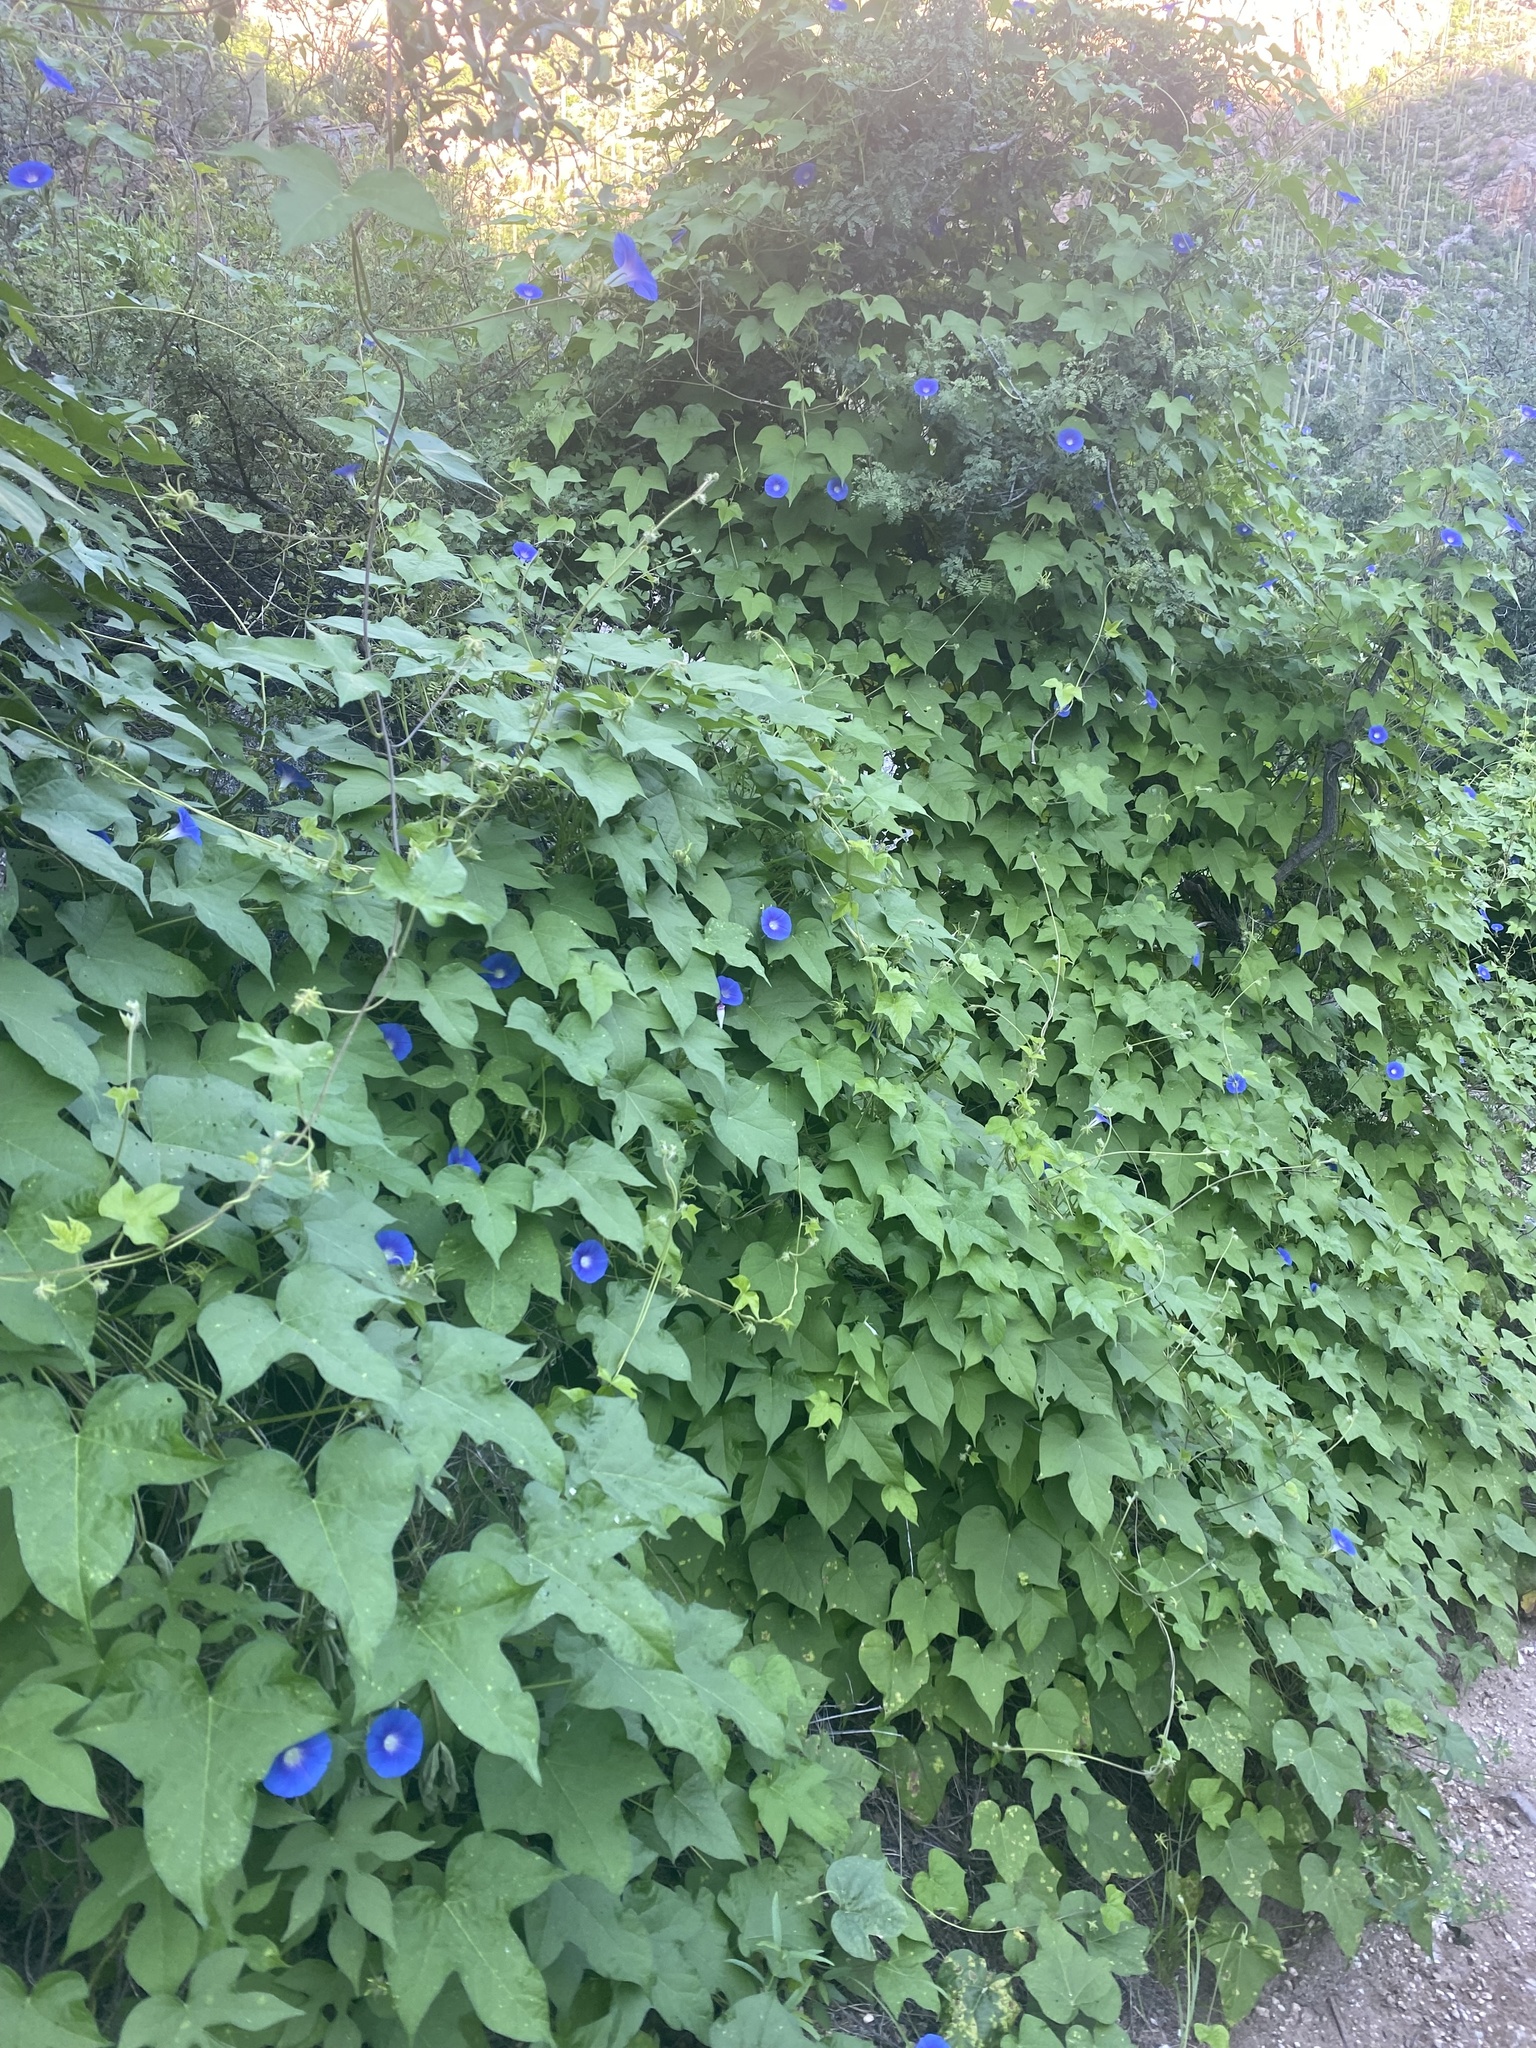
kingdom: Plantae
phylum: Tracheophyta
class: Magnoliopsida
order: Solanales
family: Convolvulaceae
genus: Ipomoea
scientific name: Ipomoea nil
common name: Japanese morning-glory
